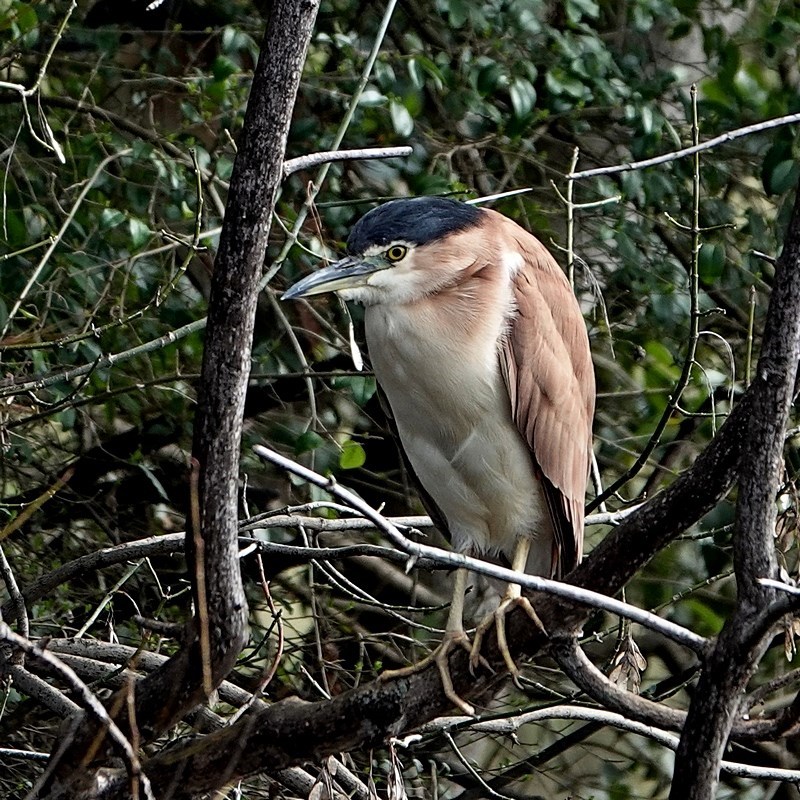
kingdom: Animalia
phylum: Chordata
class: Aves
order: Pelecaniformes
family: Ardeidae
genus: Nycticorax
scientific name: Nycticorax caledonicus
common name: Rufous night-heron
